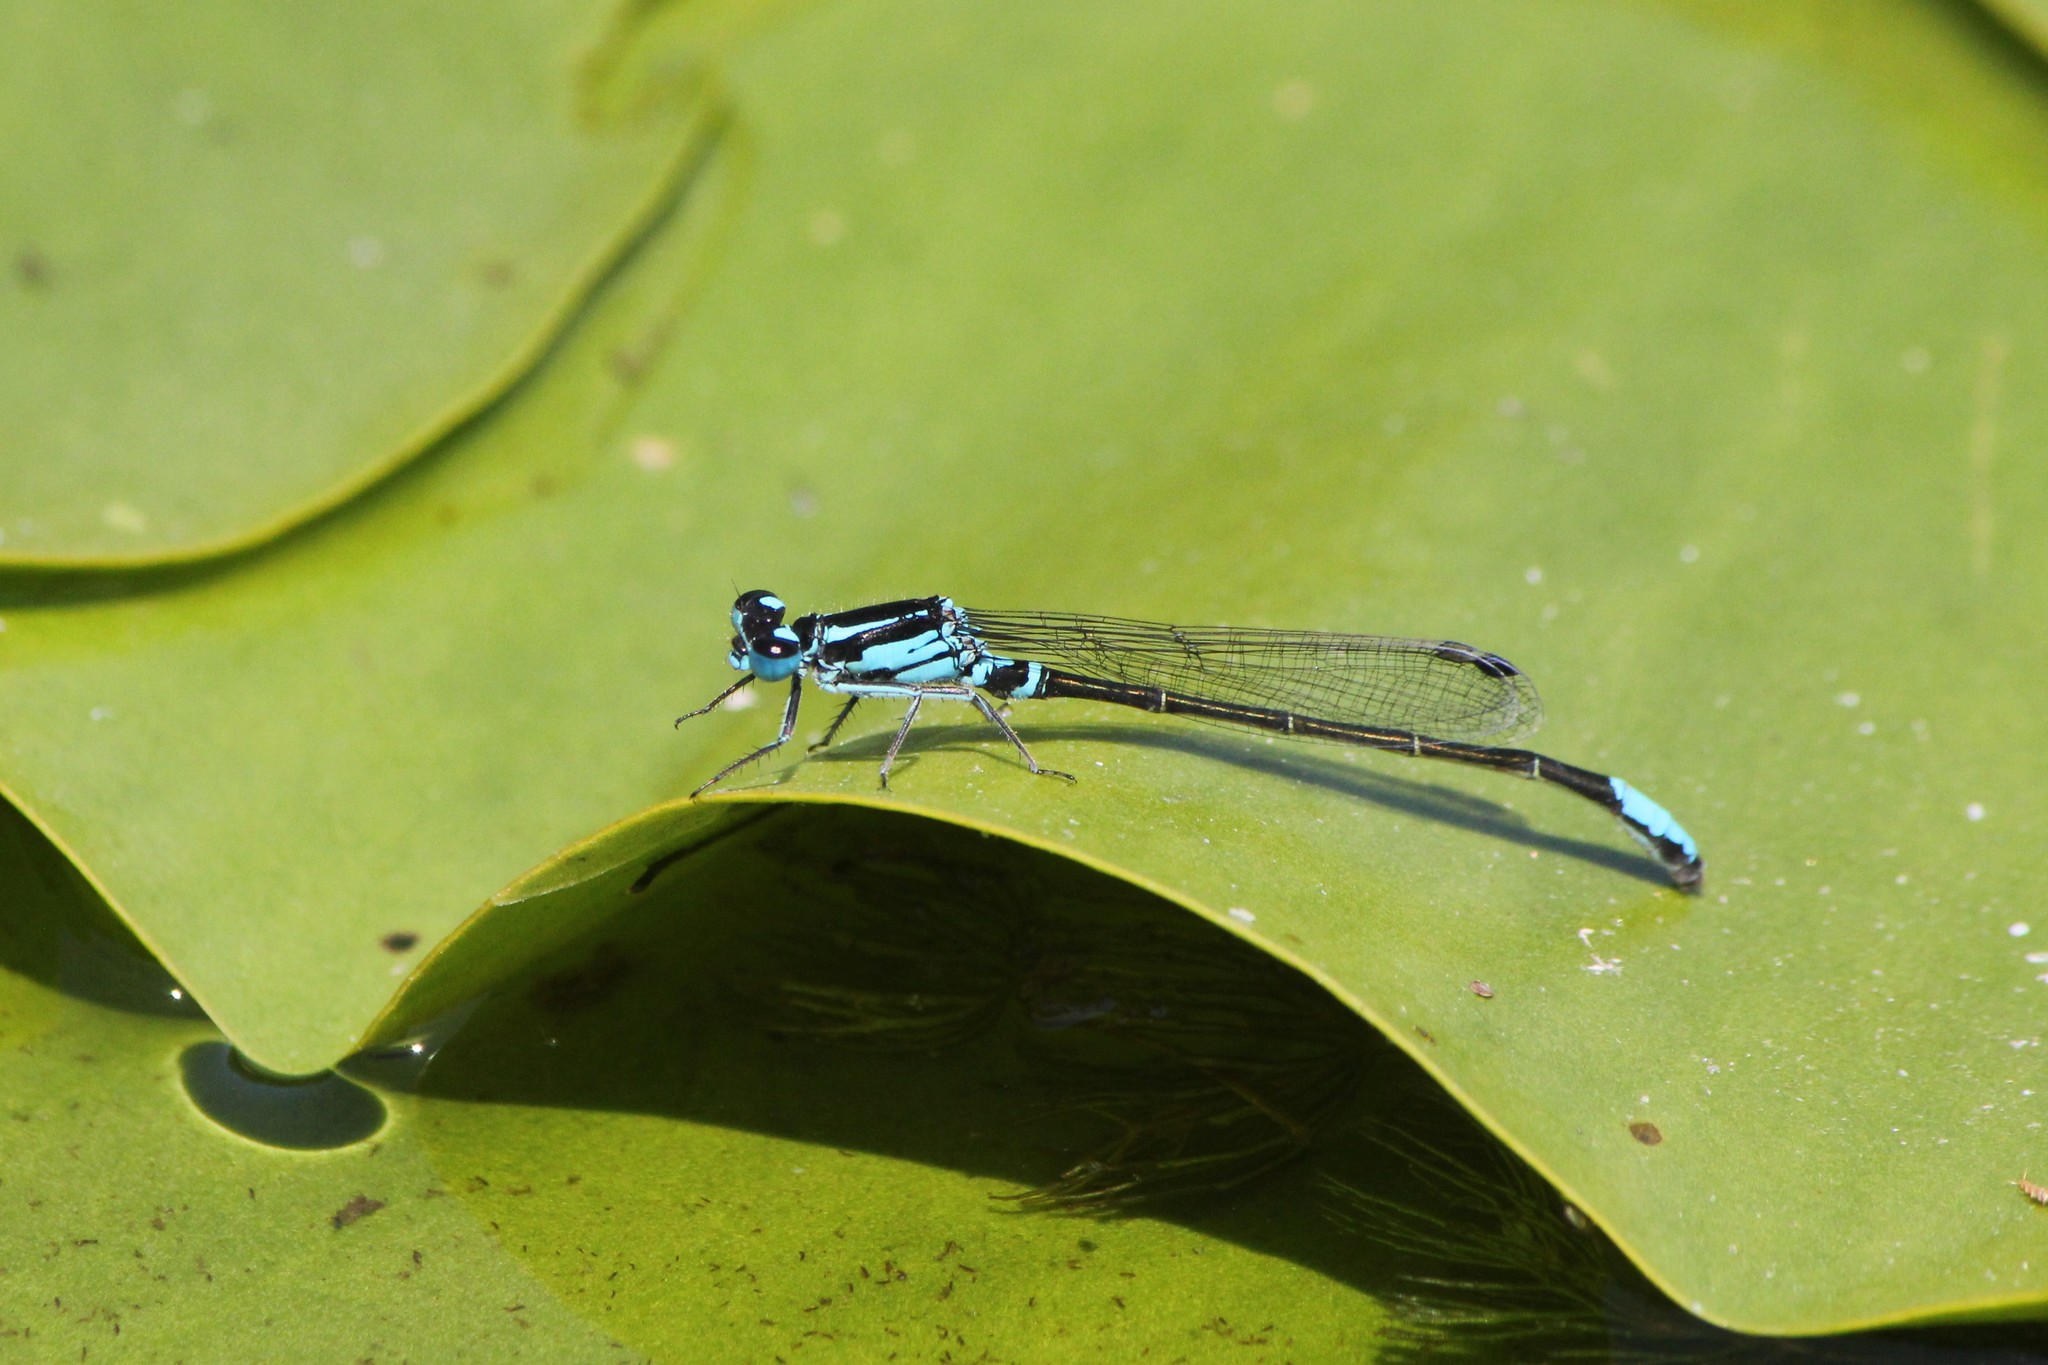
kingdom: Animalia
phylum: Arthropoda
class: Insecta
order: Odonata
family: Coenagrionidae
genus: Ischnura
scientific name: Ischnura kellicotti
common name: Lilypad forktail
